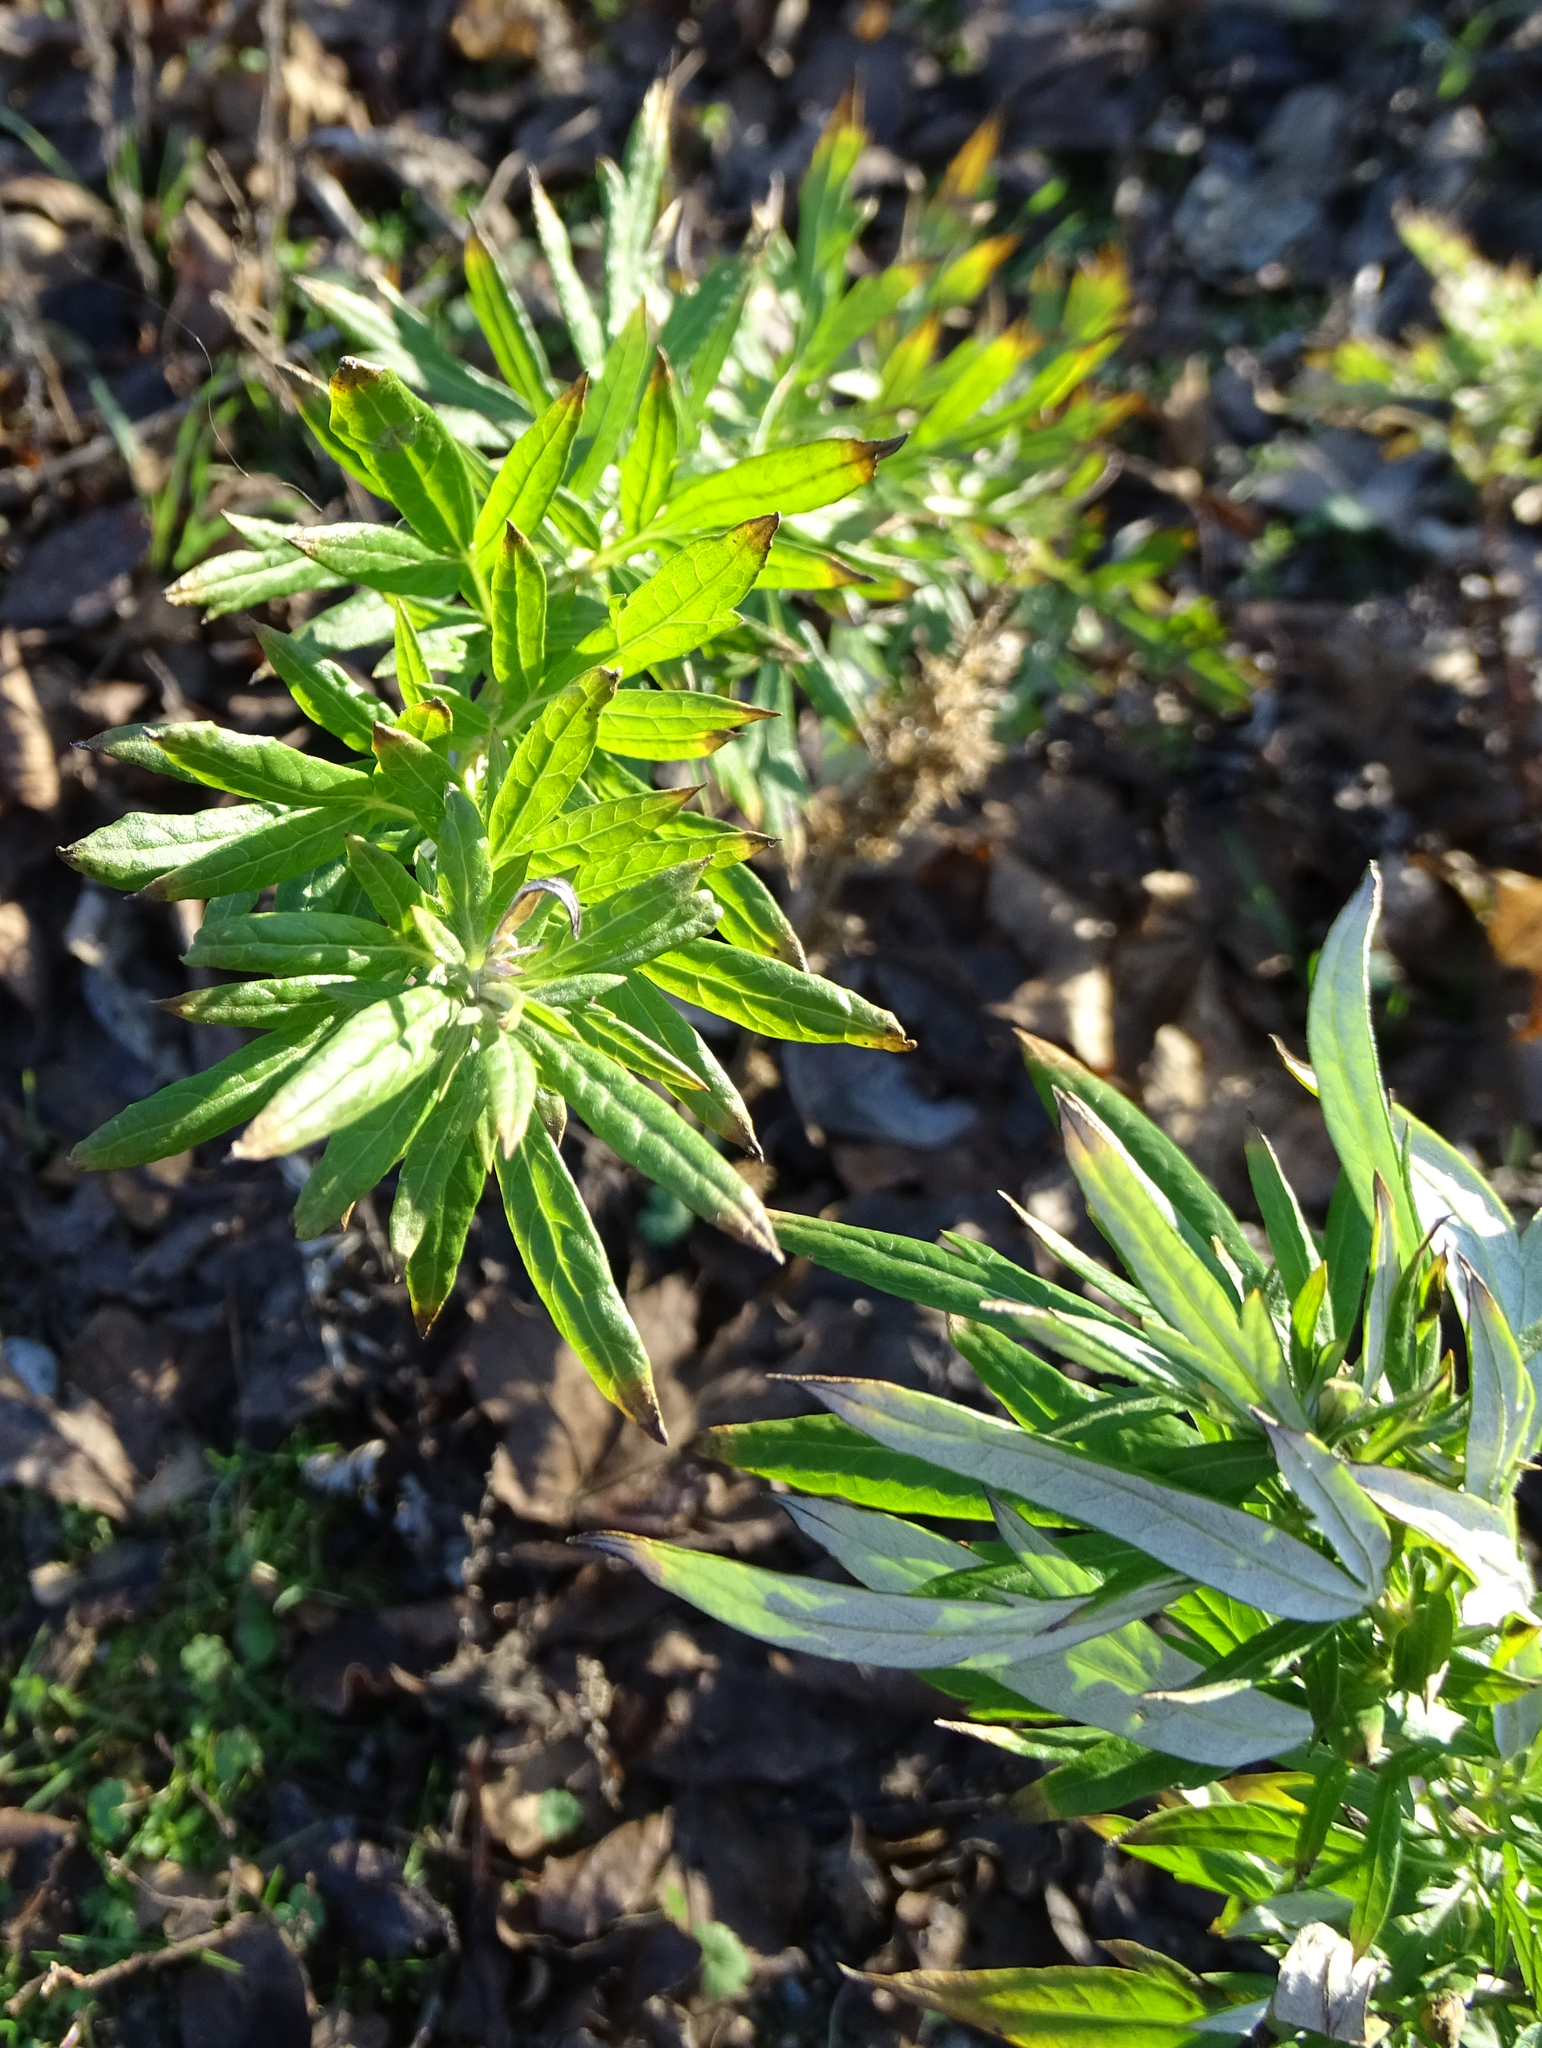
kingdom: Plantae
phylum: Tracheophyta
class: Magnoliopsida
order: Asterales
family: Asteraceae
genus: Artemisia
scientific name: Artemisia vulgaris
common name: Mugwort
